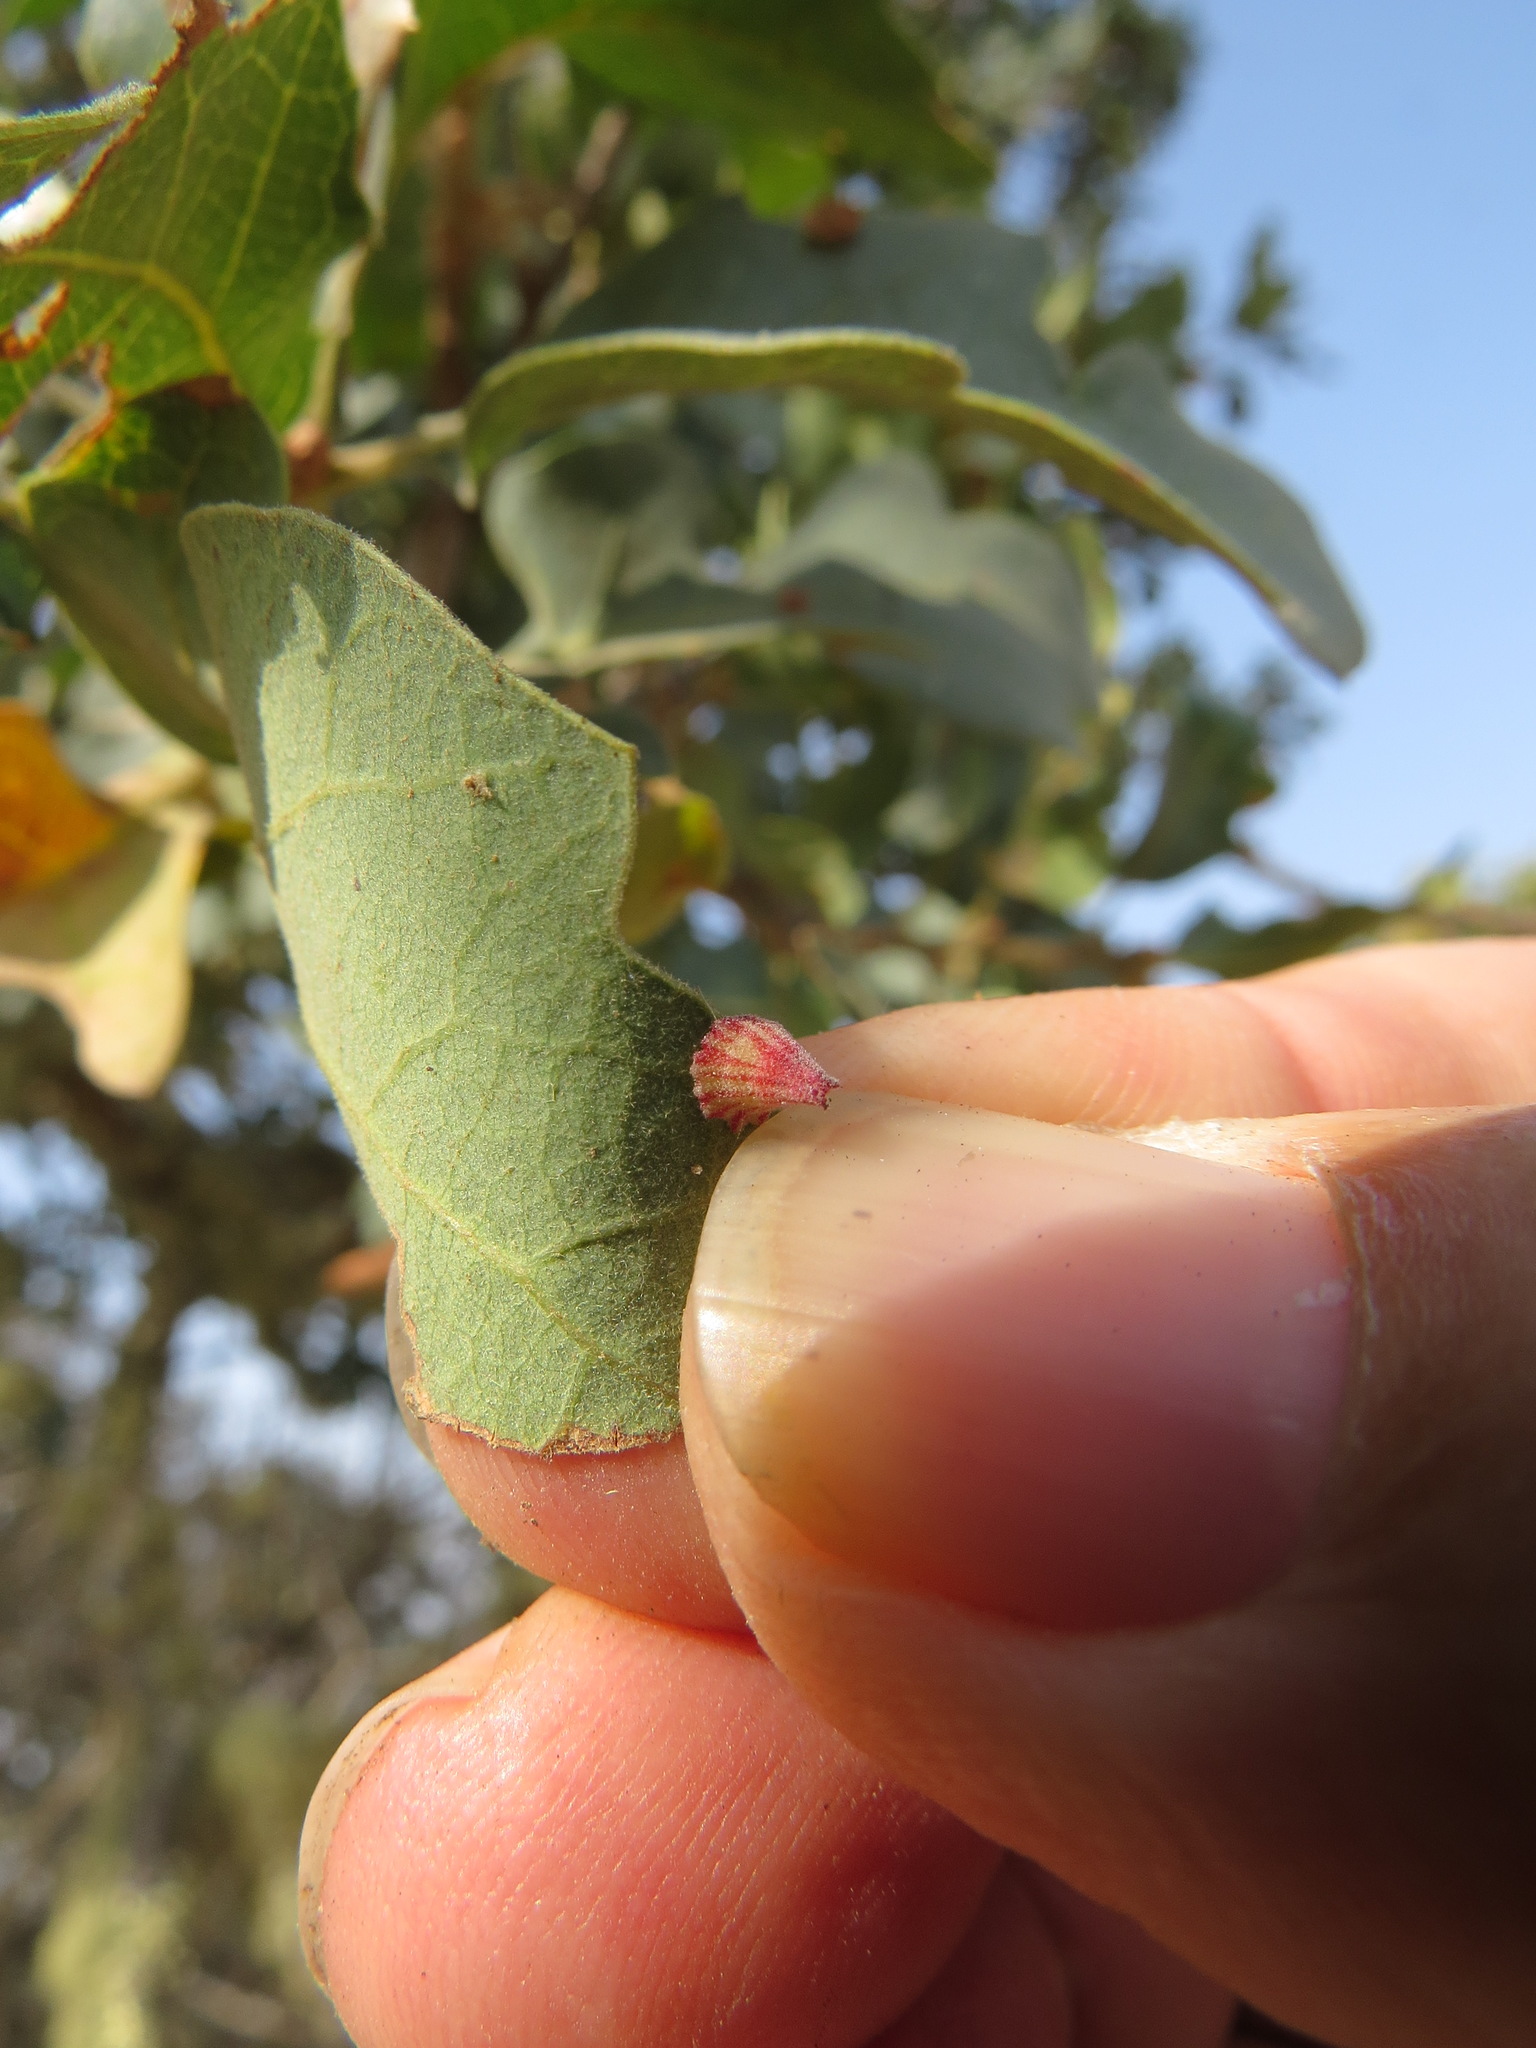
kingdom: Animalia
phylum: Arthropoda
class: Insecta
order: Hymenoptera
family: Cynipidae
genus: Andricus
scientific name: Andricus
